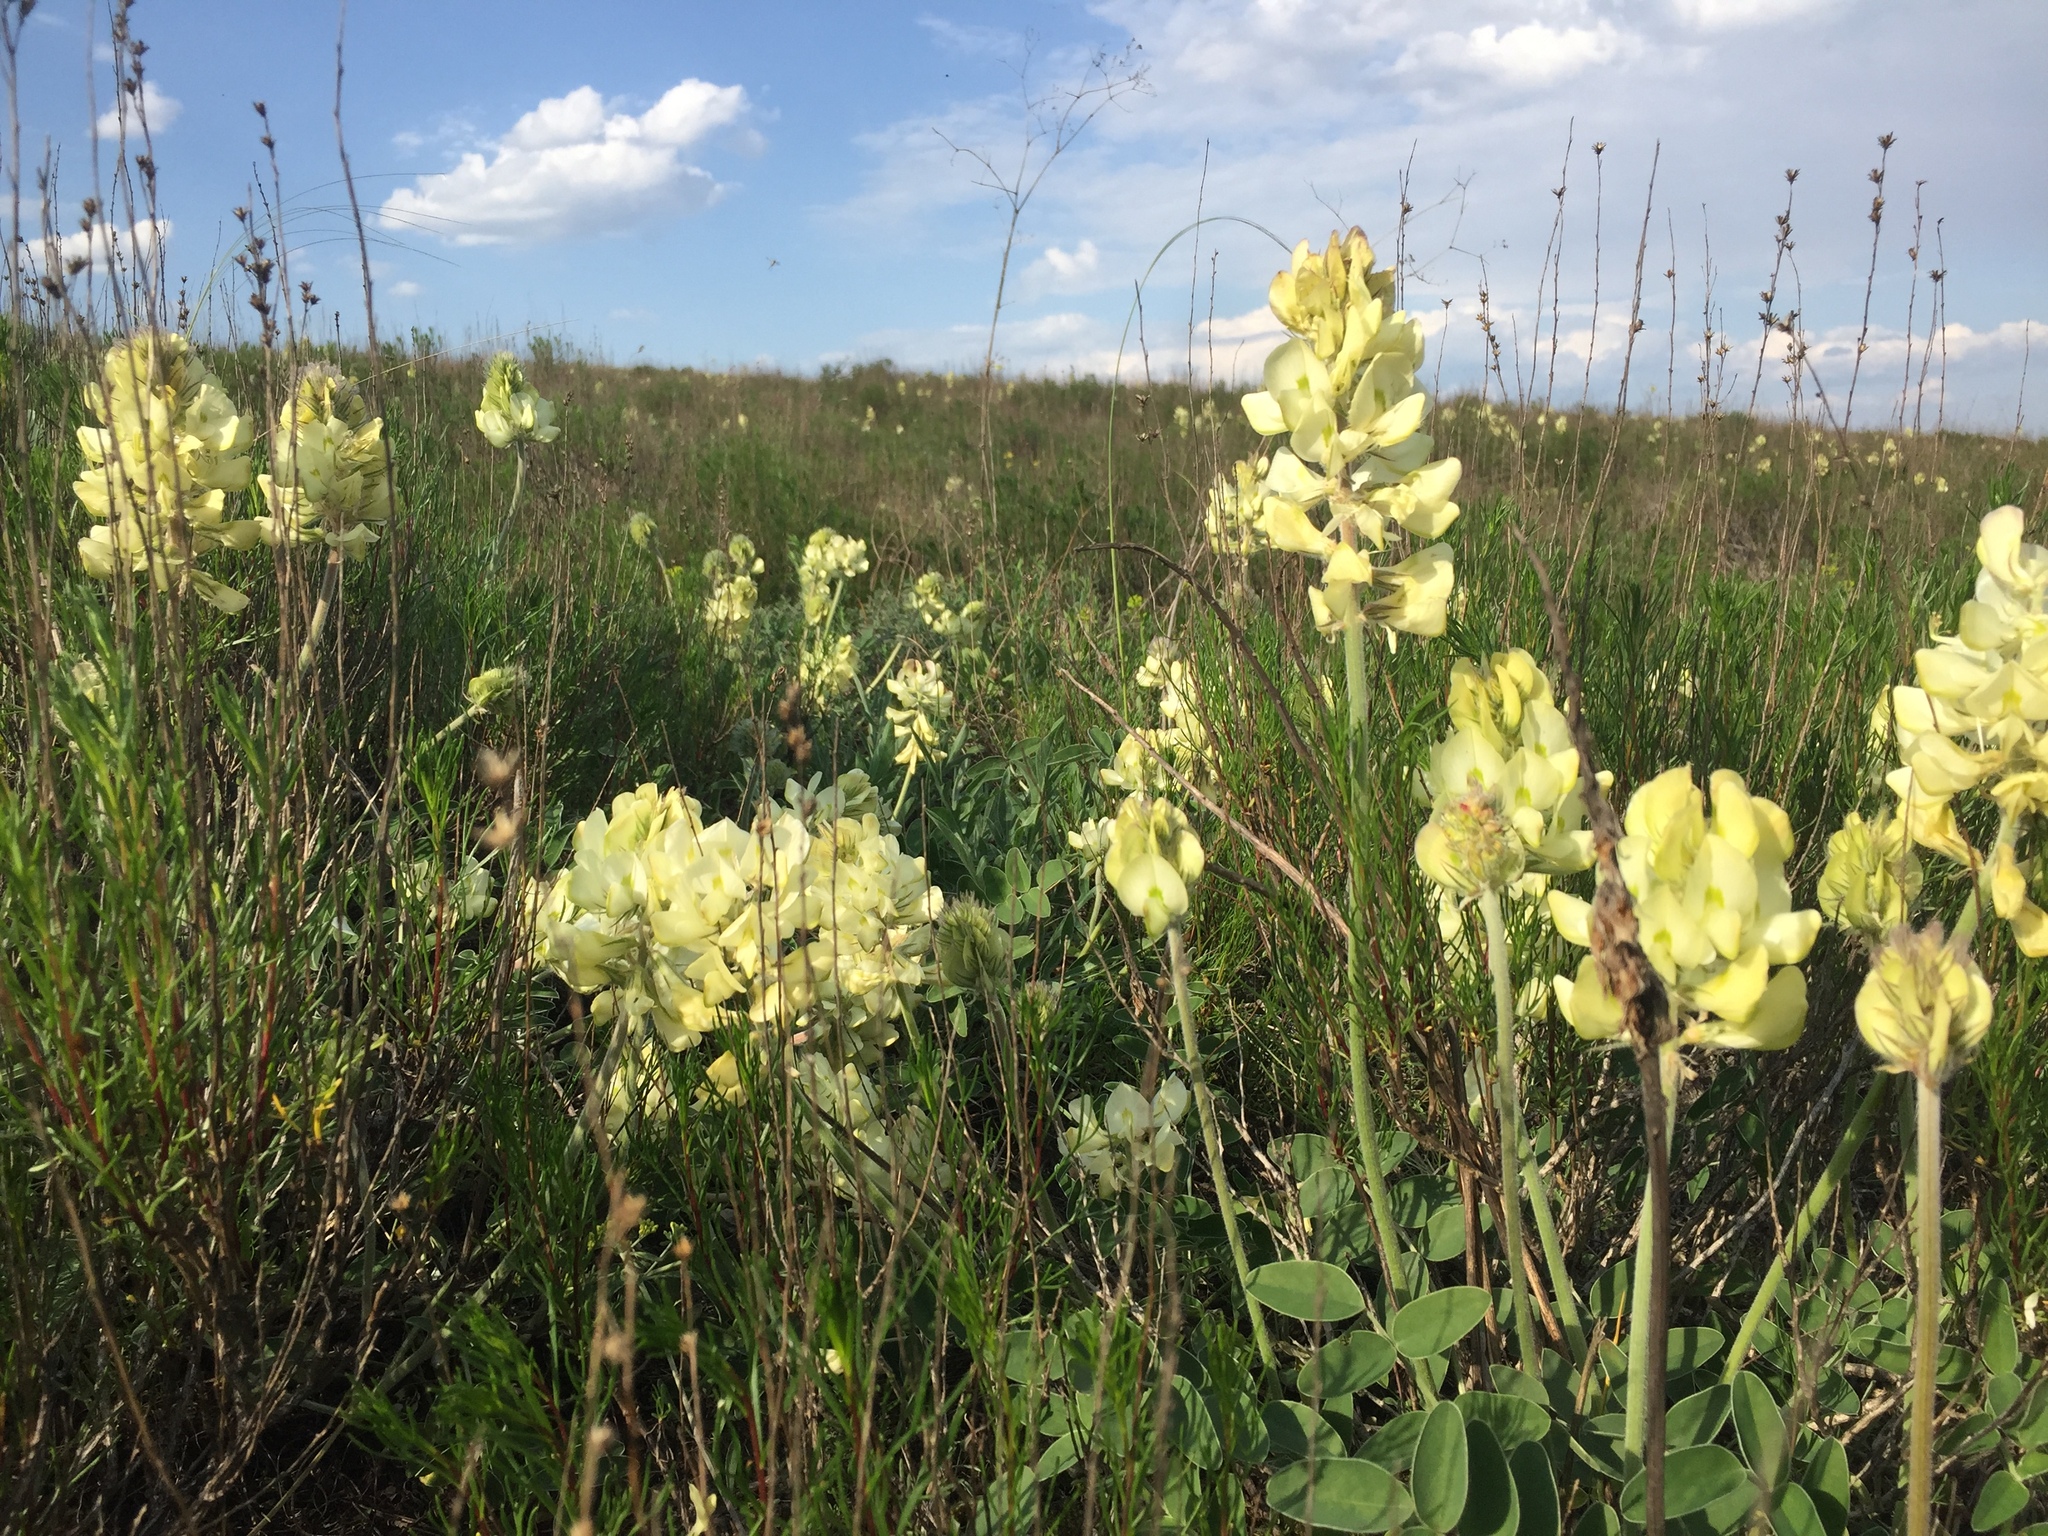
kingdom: Plantae
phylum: Tracheophyta
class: Magnoliopsida
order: Fabales
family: Fabaceae
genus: Hedysarum
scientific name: Hedysarum grandiflorum
